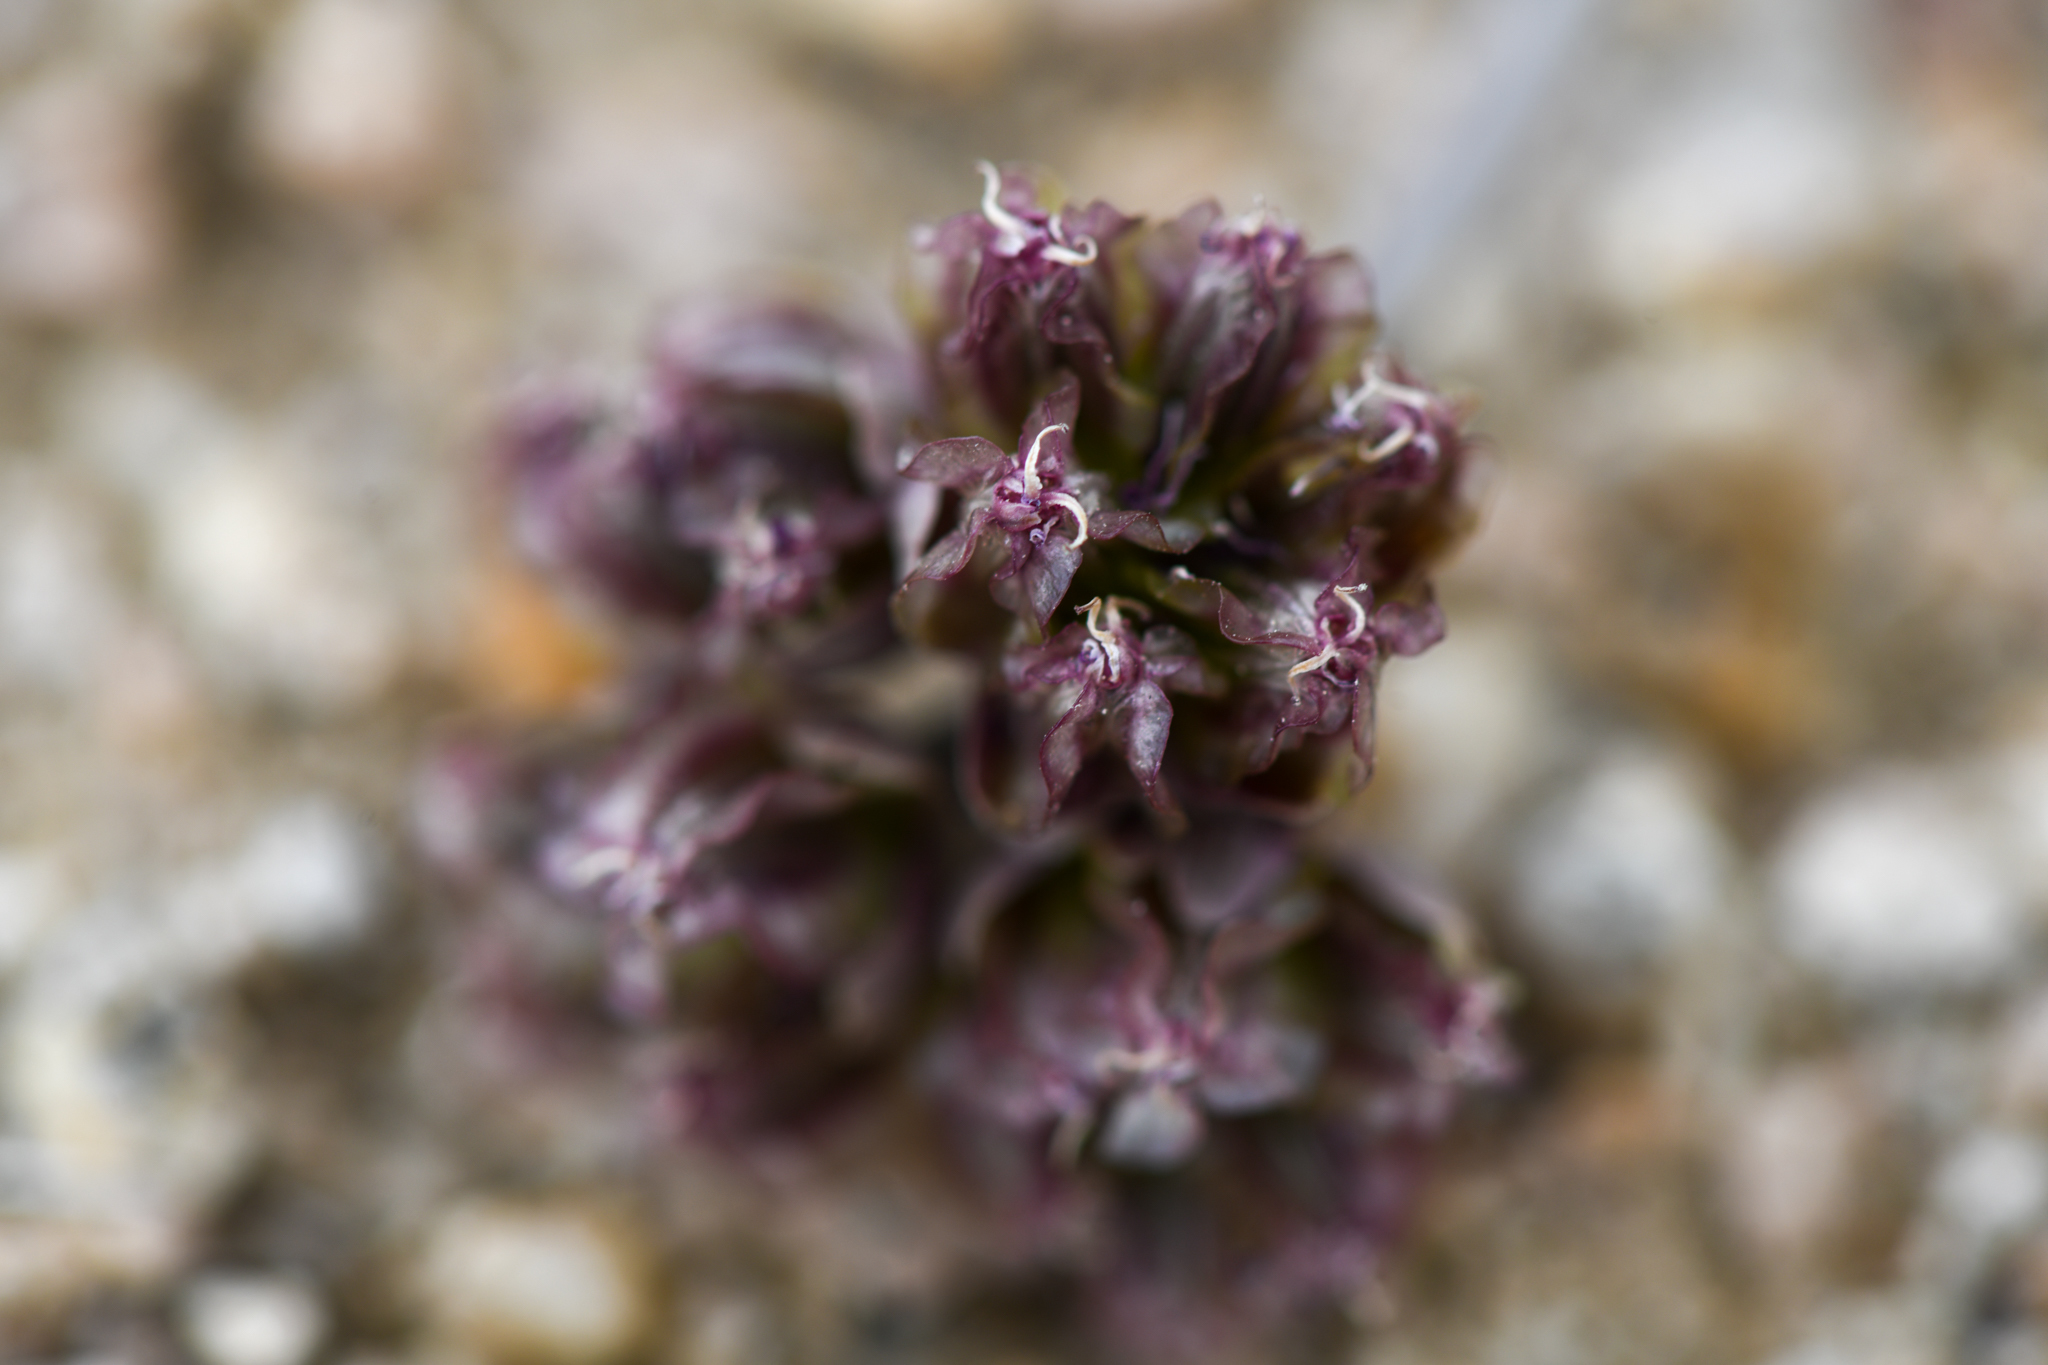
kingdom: Plantae
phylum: Tracheophyta
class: Magnoliopsida
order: Apiales
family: Apiaceae
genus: Vesper
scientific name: Vesper multinervatus
